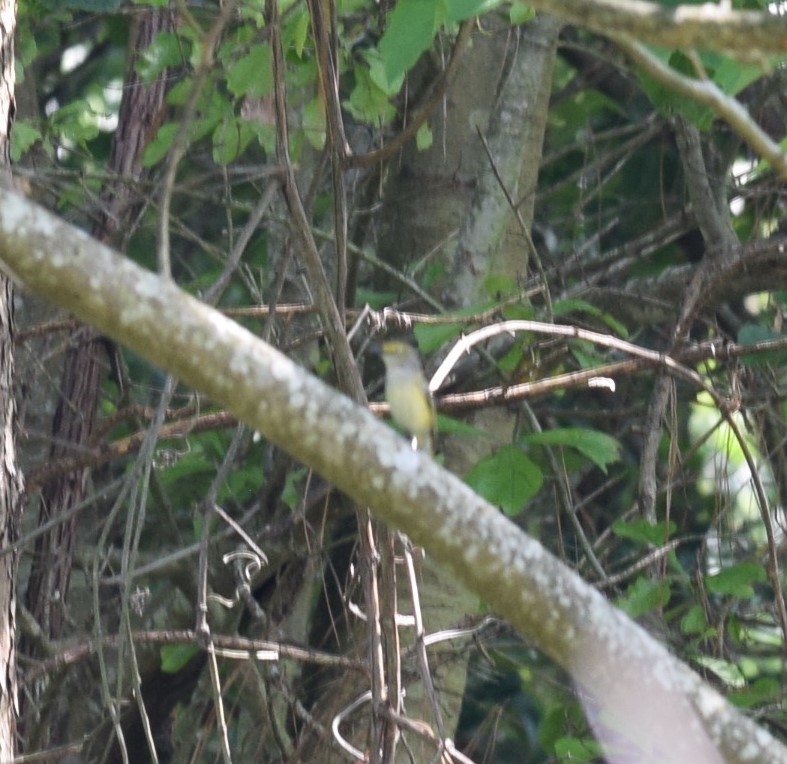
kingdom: Animalia
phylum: Chordata
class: Aves
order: Passeriformes
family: Vireonidae
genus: Vireo
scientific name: Vireo griseus
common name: White-eyed vireo
